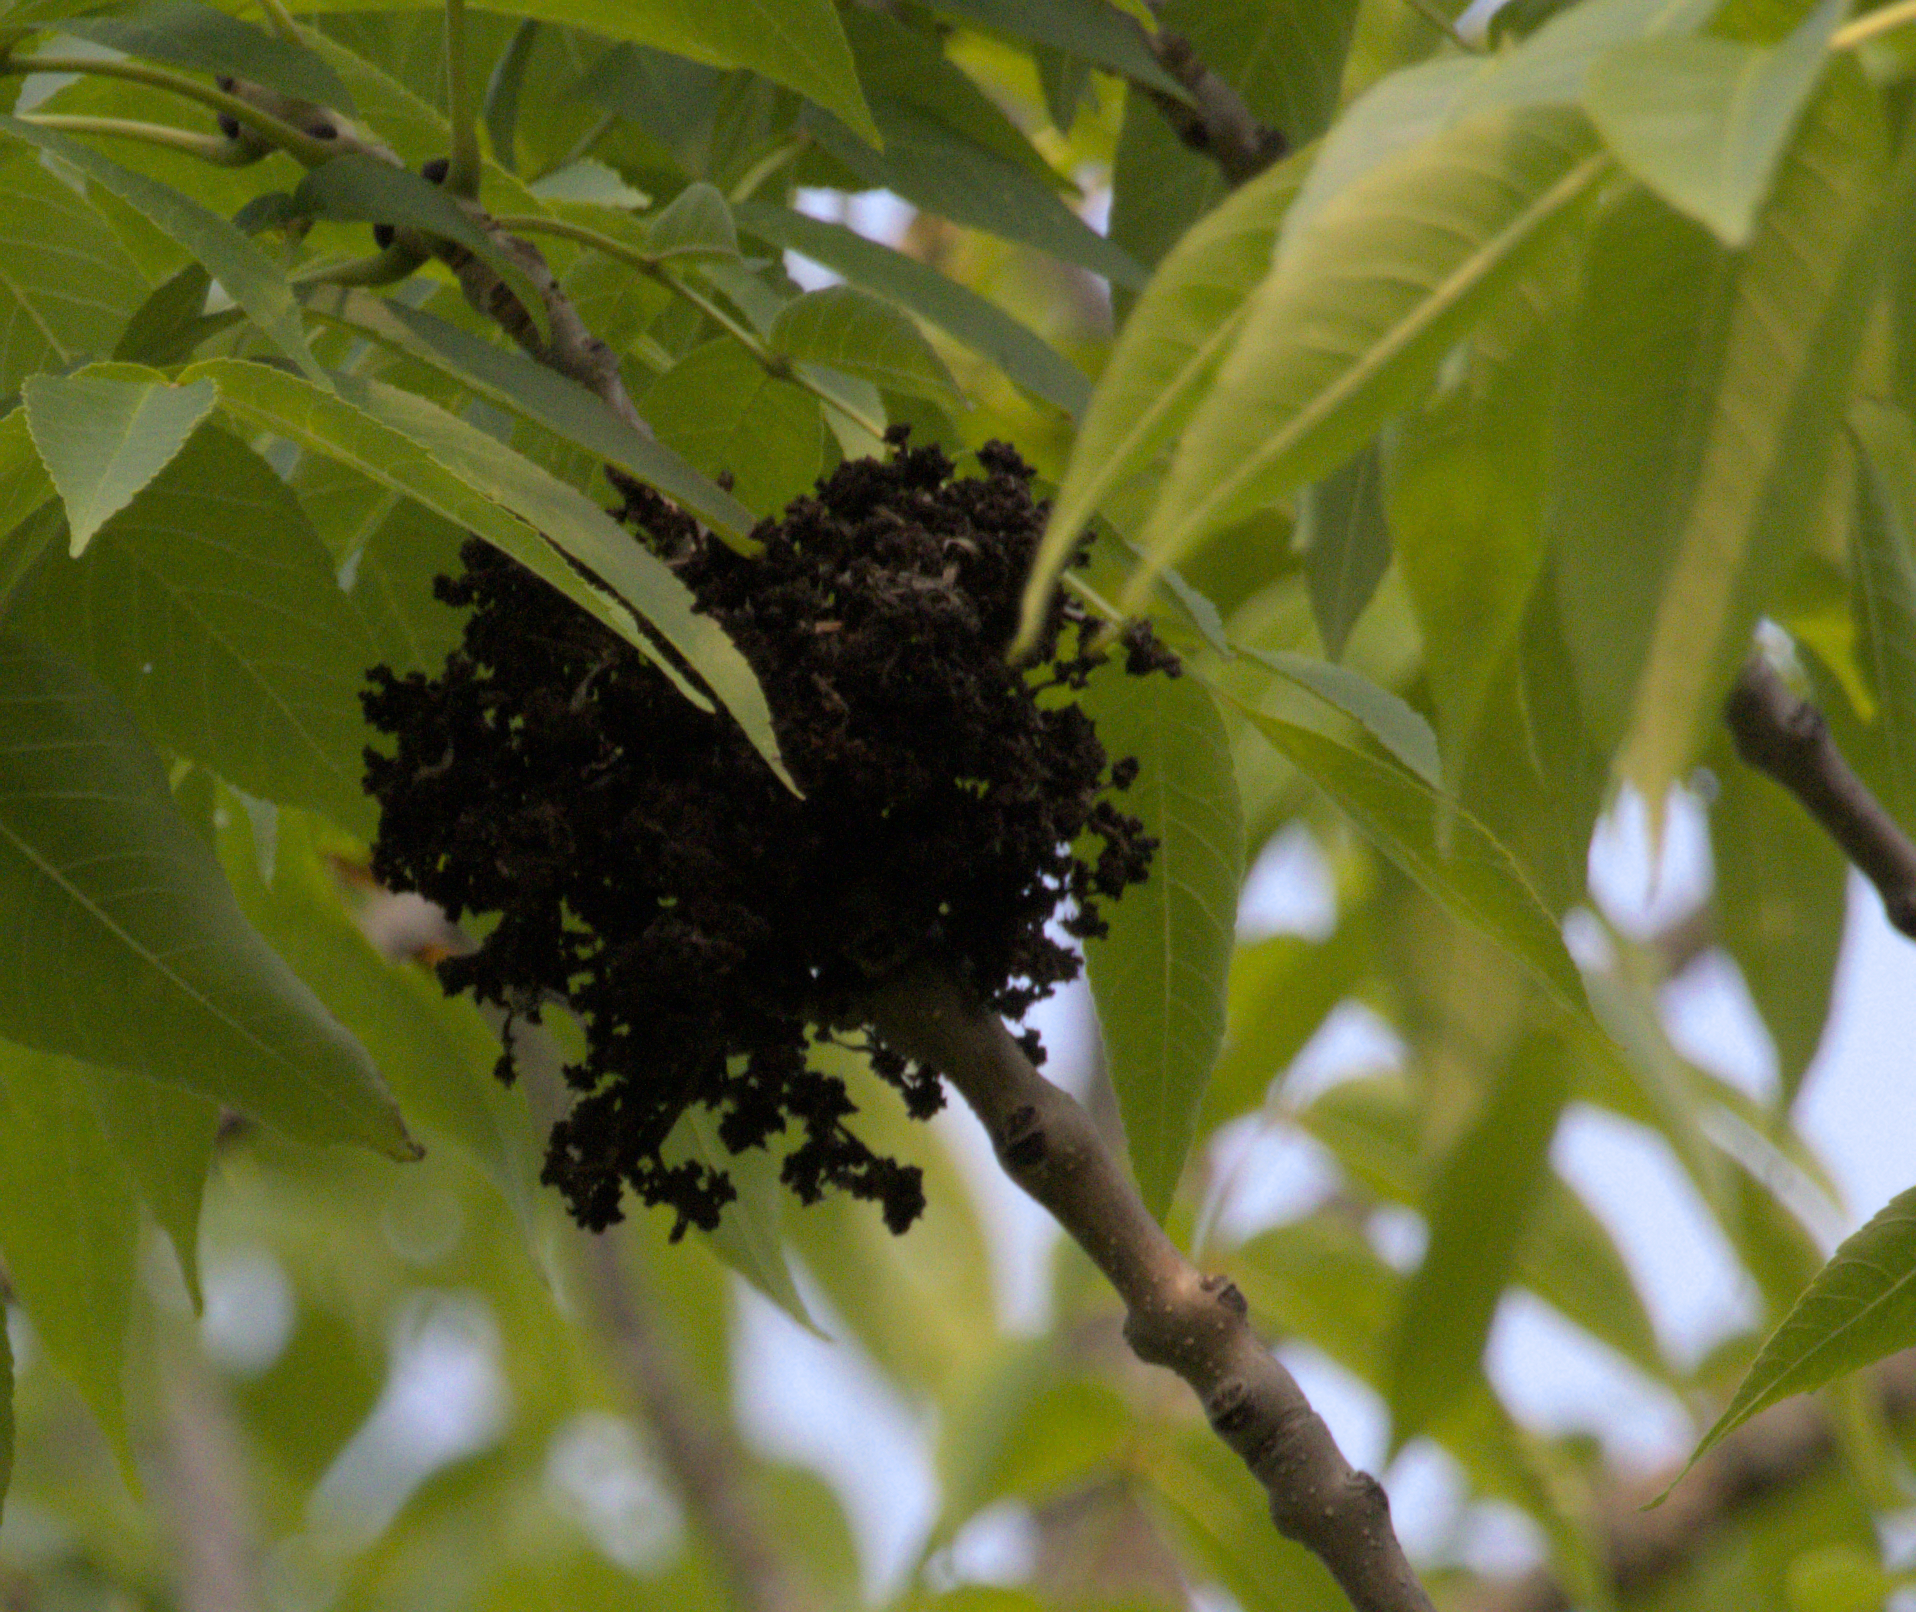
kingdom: Animalia
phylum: Arthropoda
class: Arachnida
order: Trombidiformes
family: Eriophyidae
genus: Aceria
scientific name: Aceria fraxiniflora
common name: Ash flower gall mite
